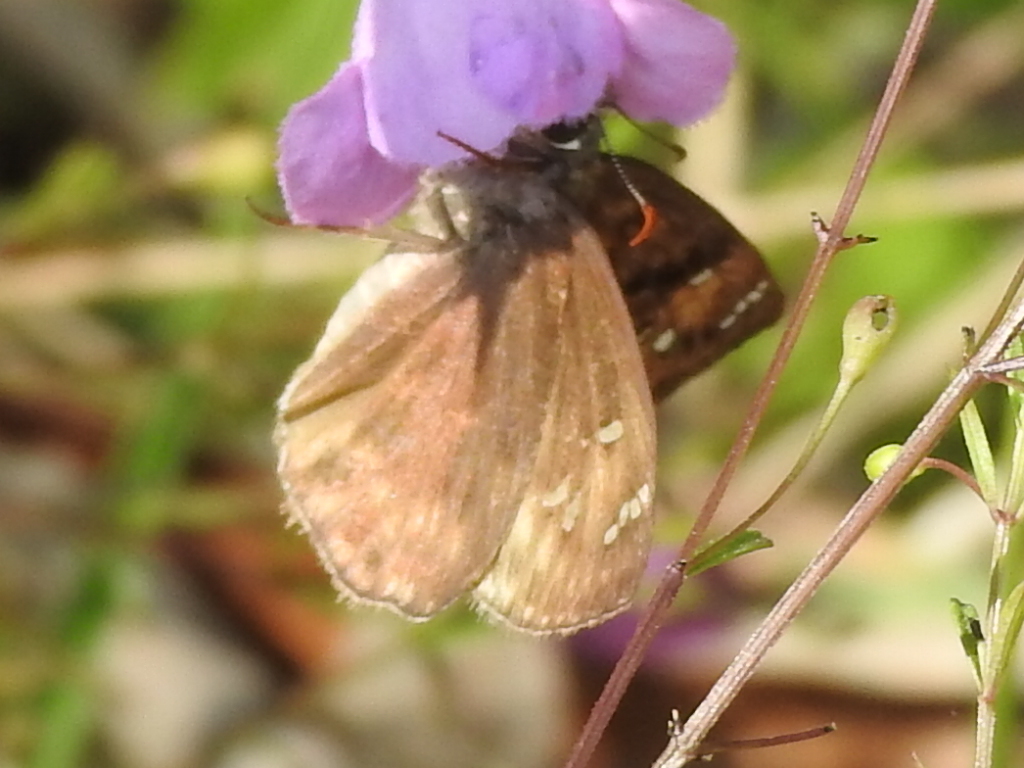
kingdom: Animalia
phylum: Arthropoda
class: Insecta
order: Lepidoptera
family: Hesperiidae
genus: Erynnis
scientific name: Erynnis horatius
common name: Horace's duskywing
